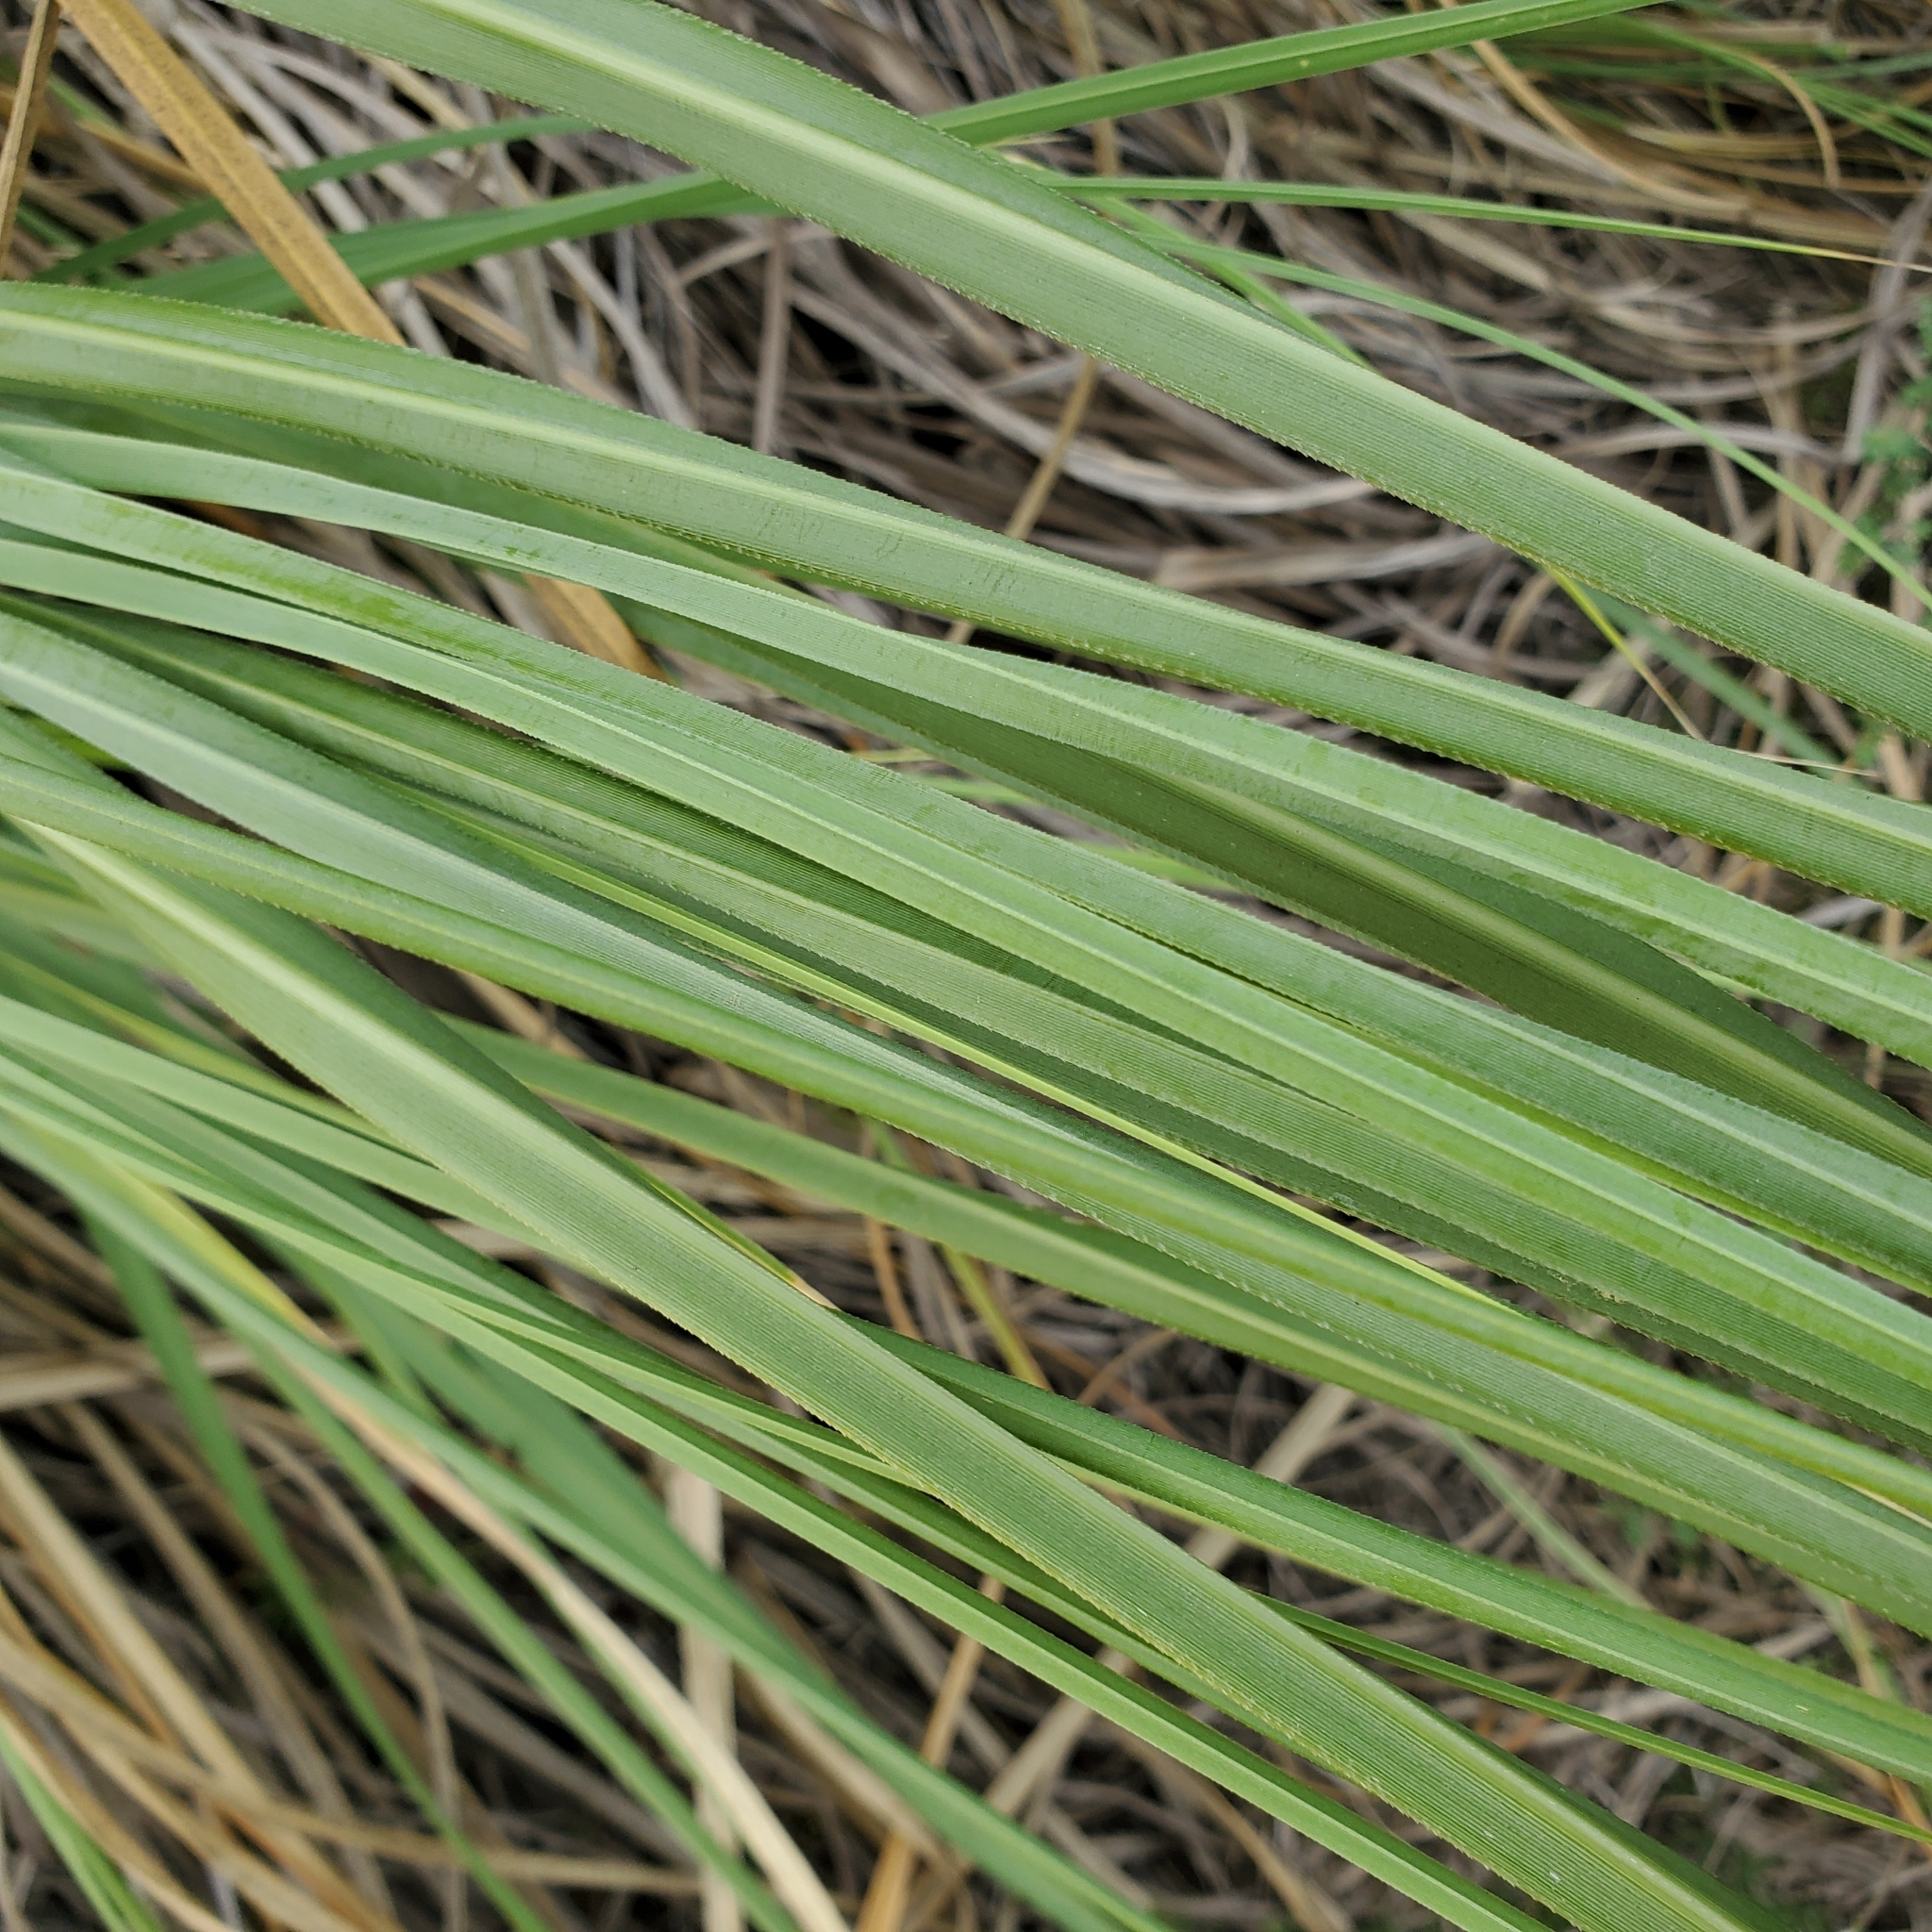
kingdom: Plantae
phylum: Tracheophyta
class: Liliopsida
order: Poales
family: Poaceae
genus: Cortaderia
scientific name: Cortaderia selloana
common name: Uruguayan pampas grass
